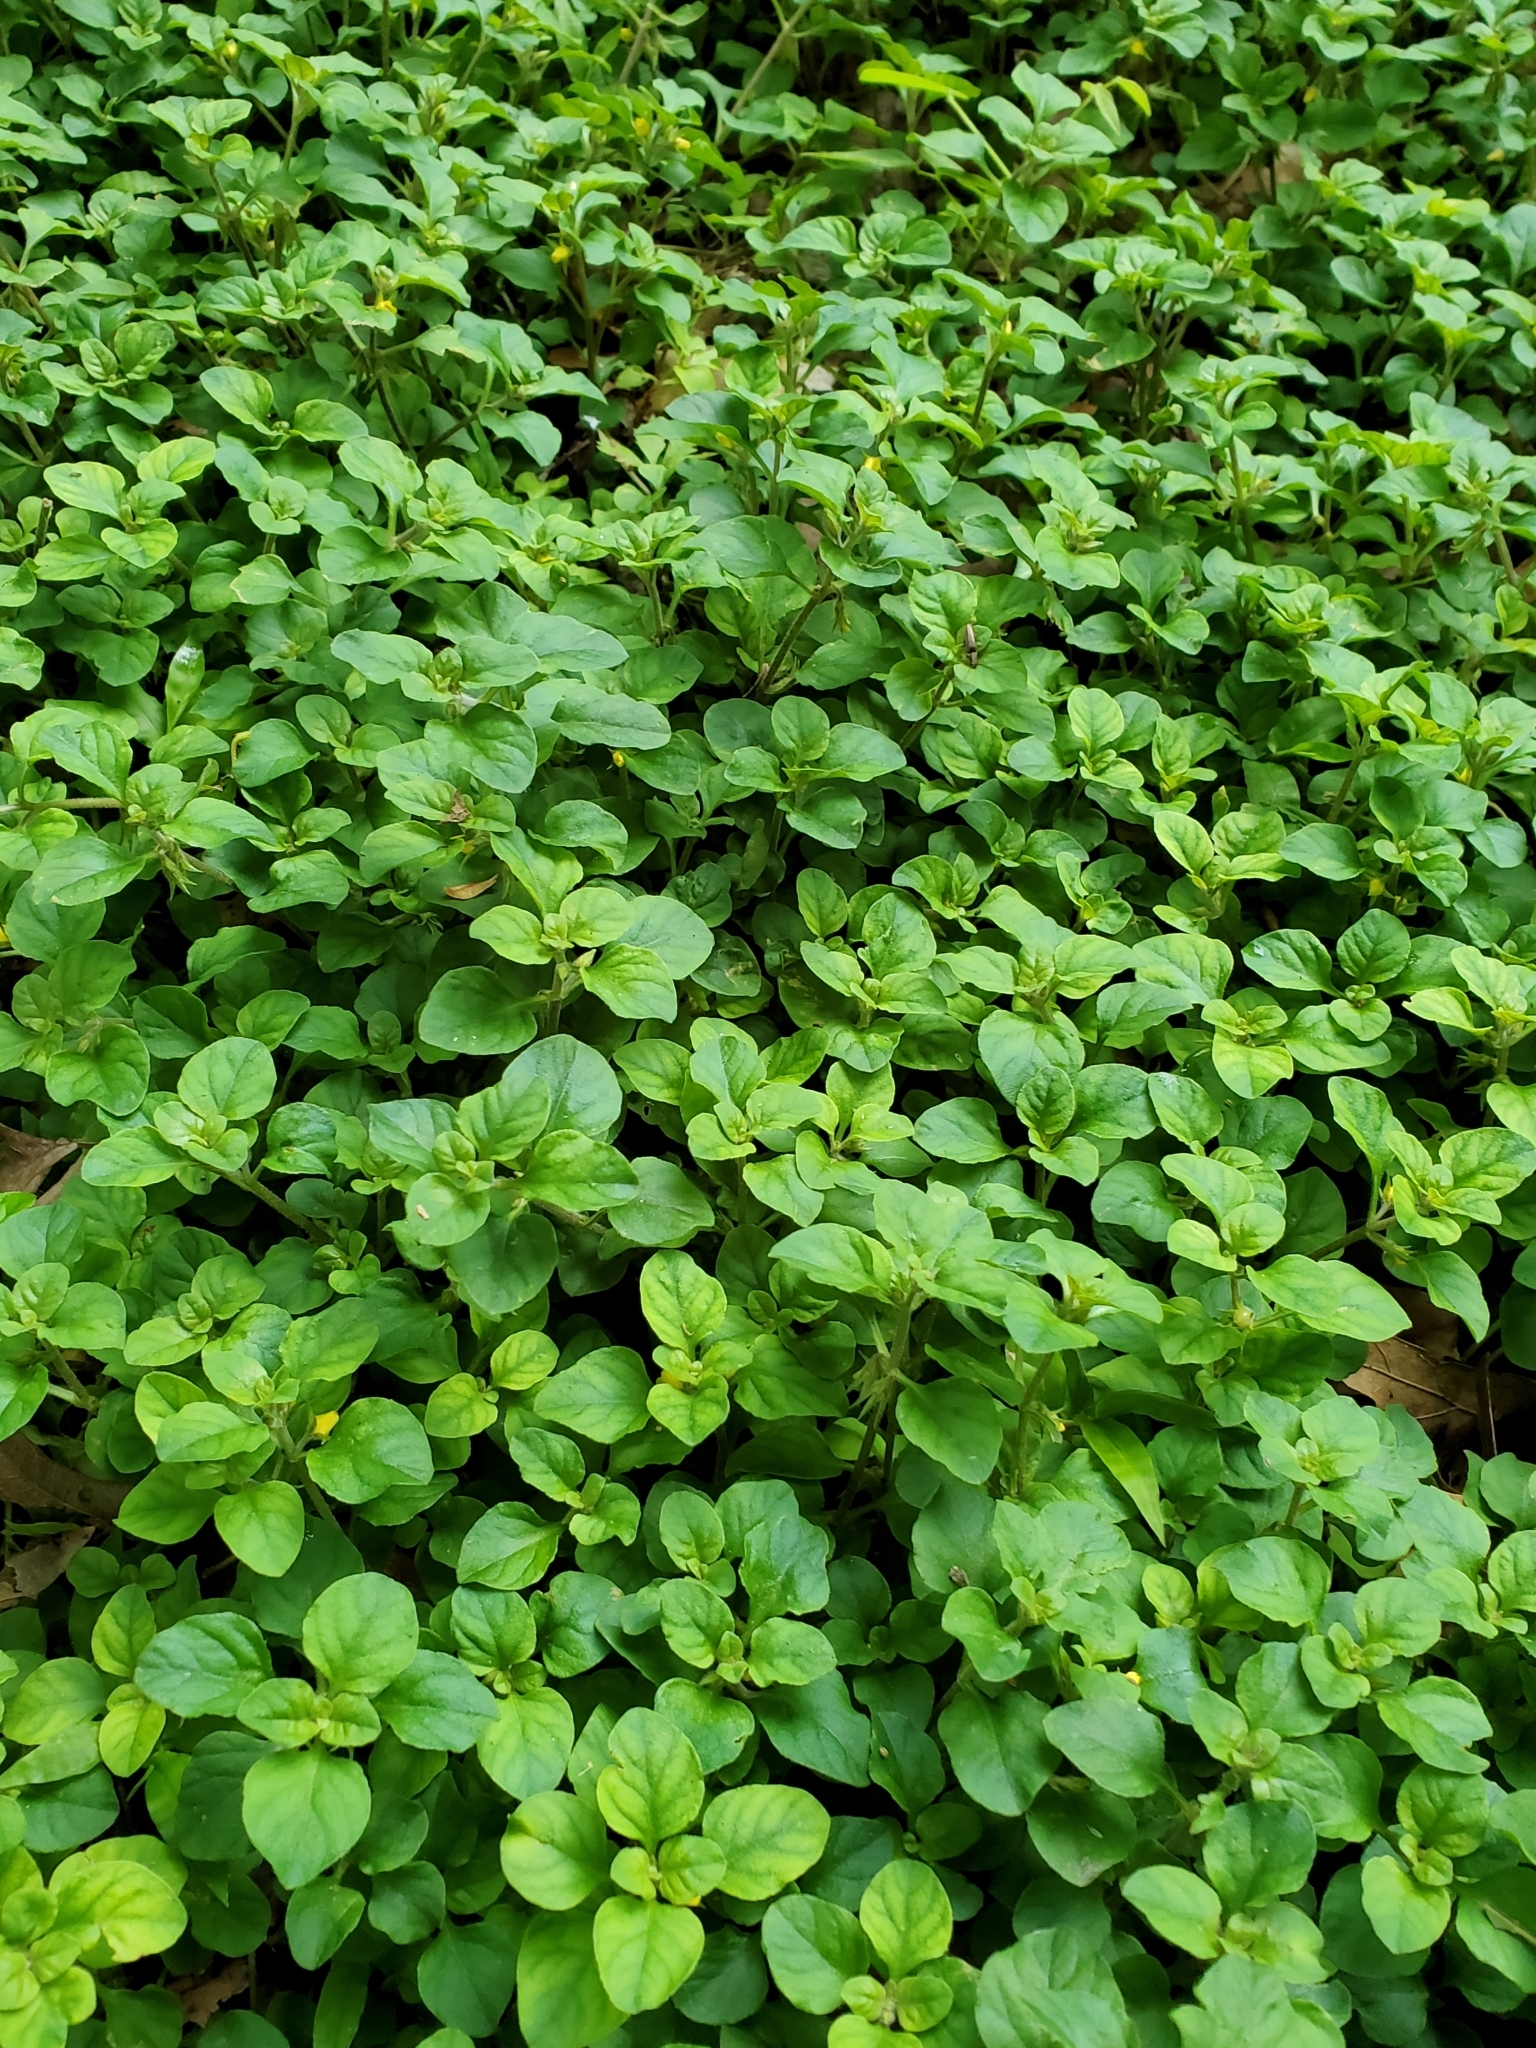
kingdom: Plantae
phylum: Tracheophyta
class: Magnoliopsida
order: Ericales
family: Primulaceae
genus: Lysimachia
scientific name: Lysimachia japonica
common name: Japanese yellow loosestrife
